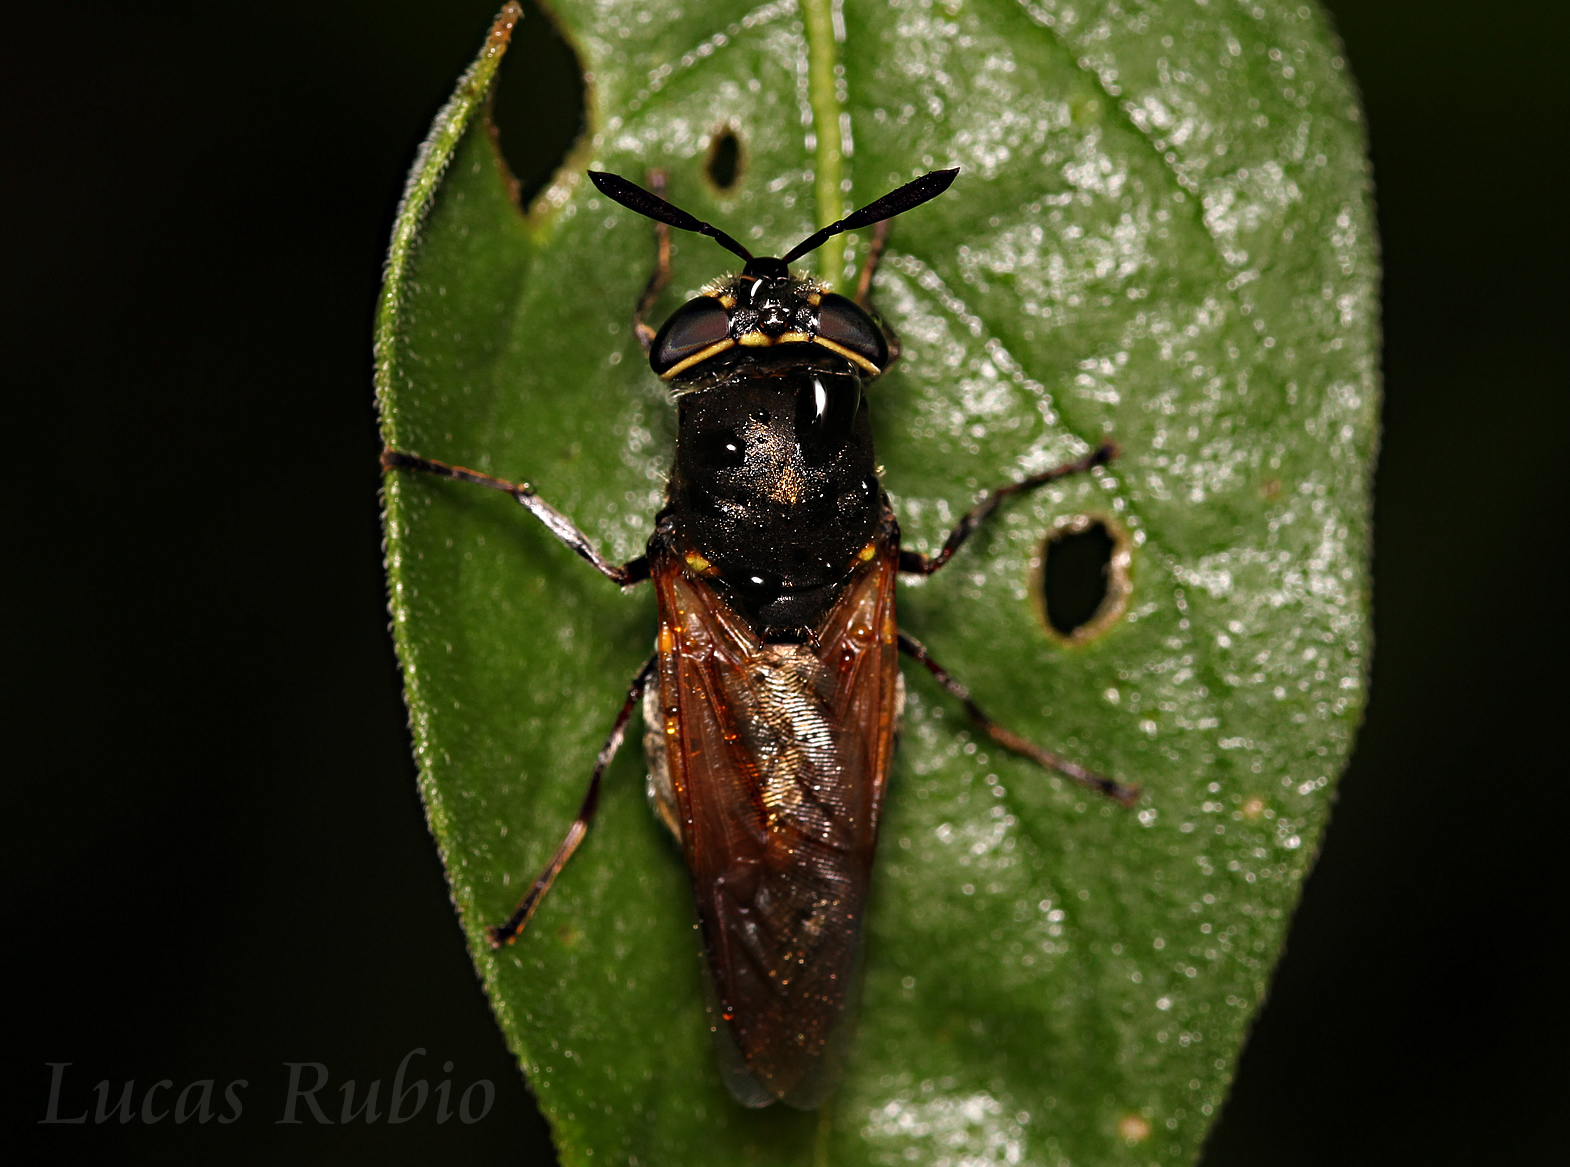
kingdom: Animalia
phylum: Arthropoda
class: Insecta
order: Diptera
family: Stratiomyidae
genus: Hoplitimyia
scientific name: Hoplitimyia
